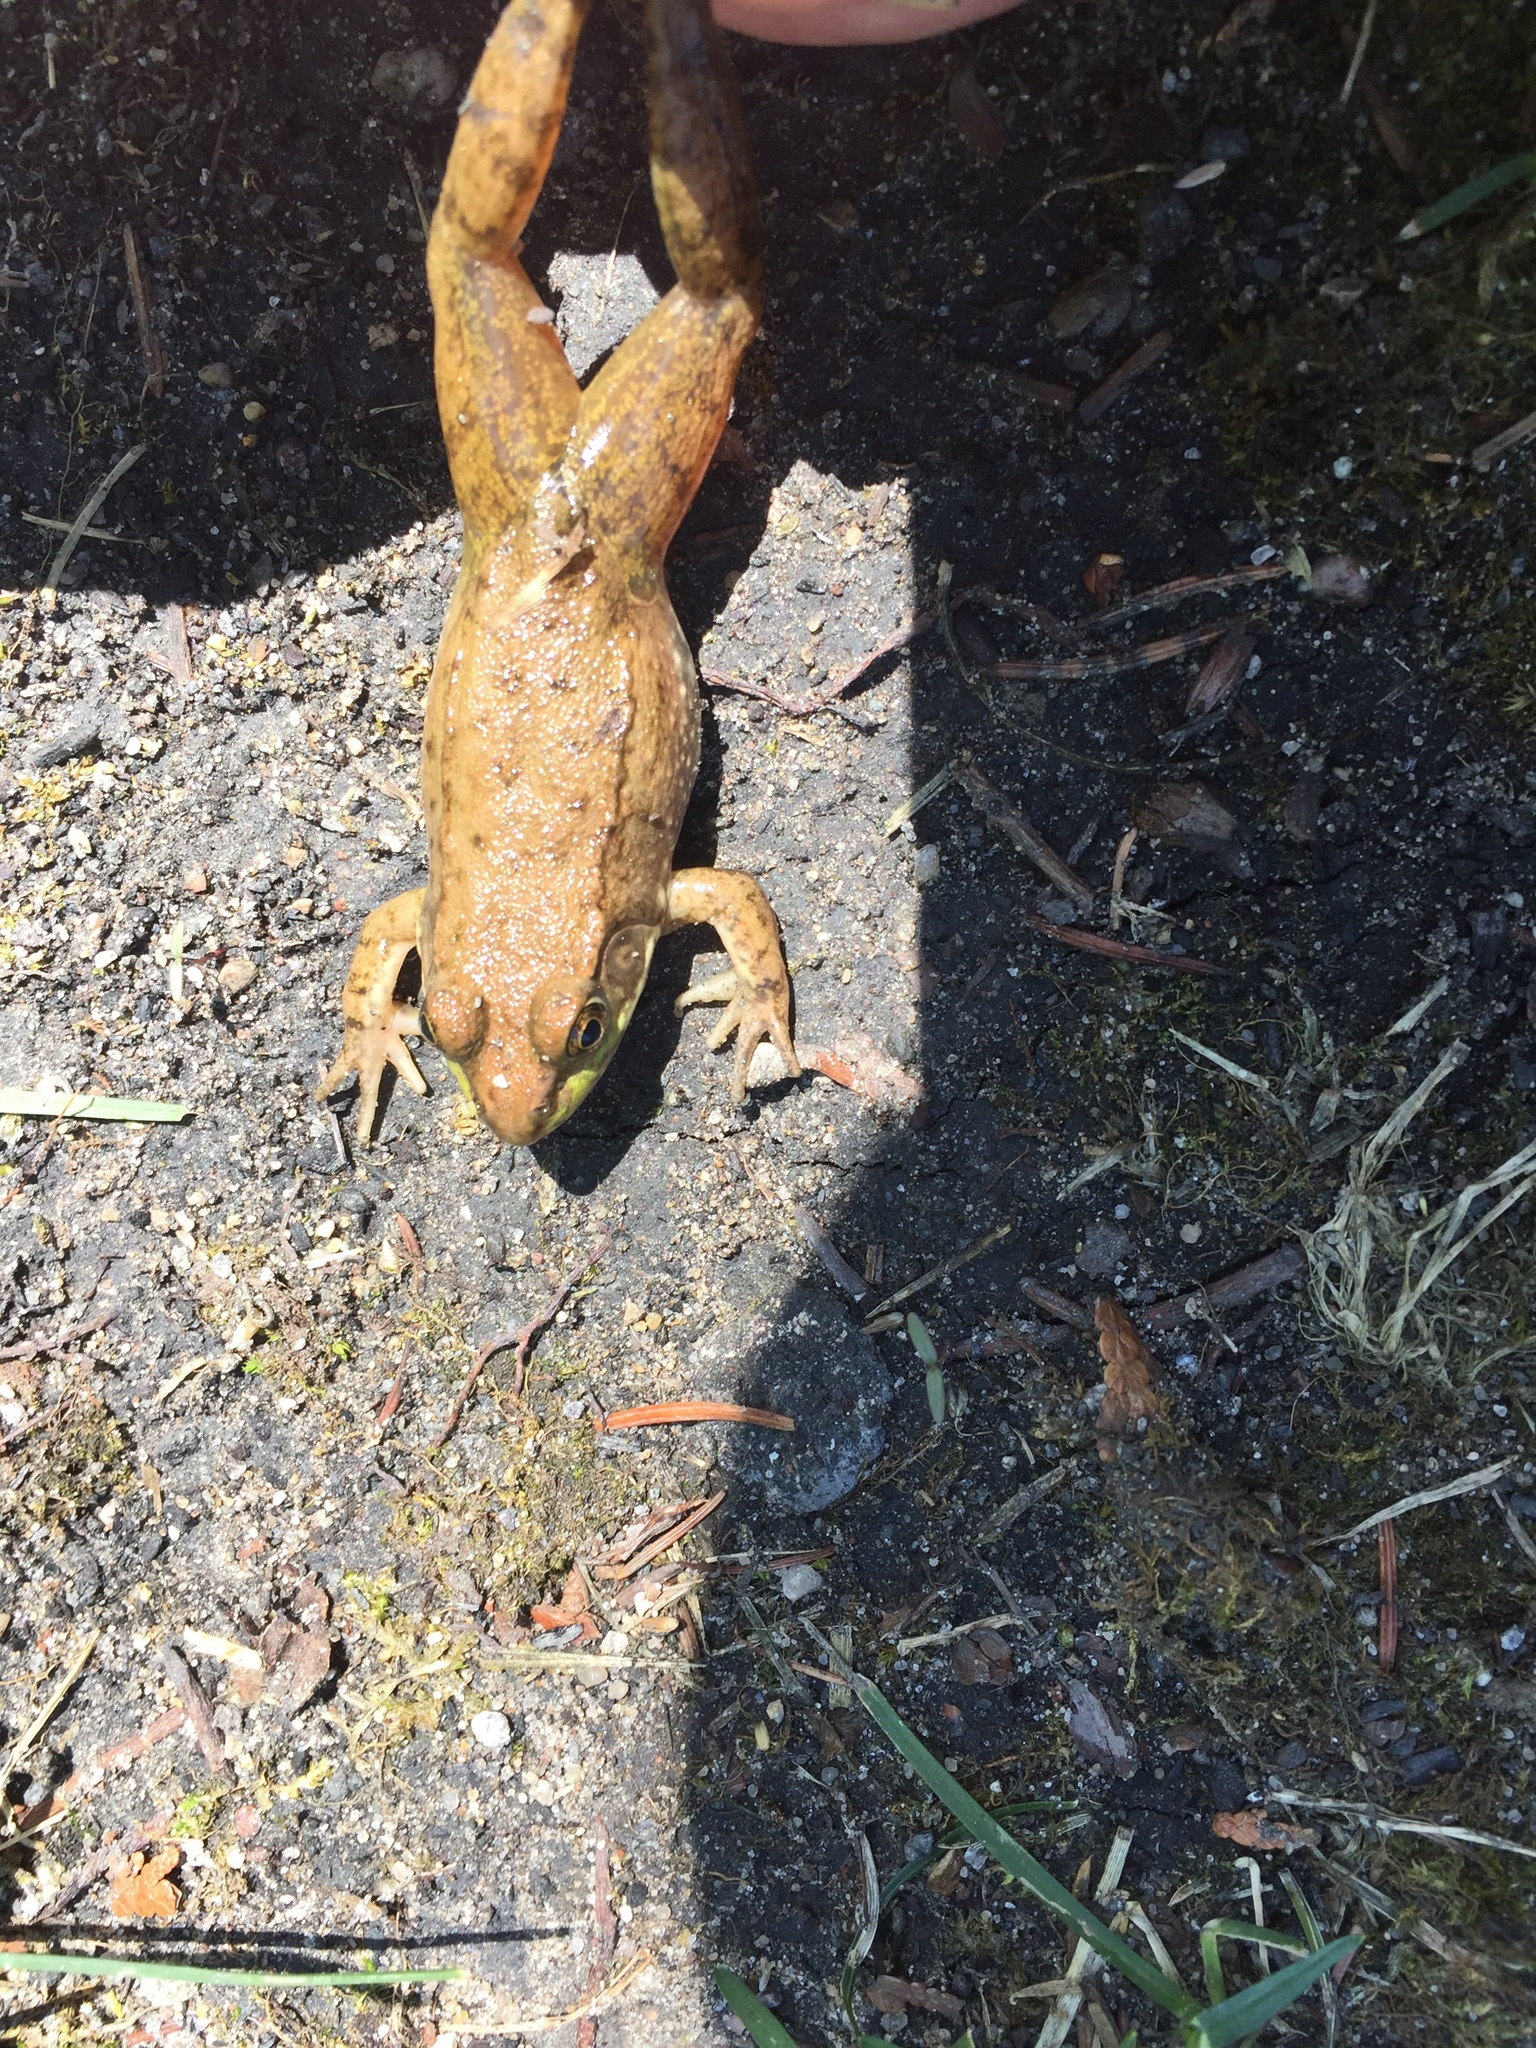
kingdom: Animalia
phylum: Chordata
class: Amphibia
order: Anura
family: Ranidae
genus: Lithobates
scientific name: Lithobates clamitans
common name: Green frog
